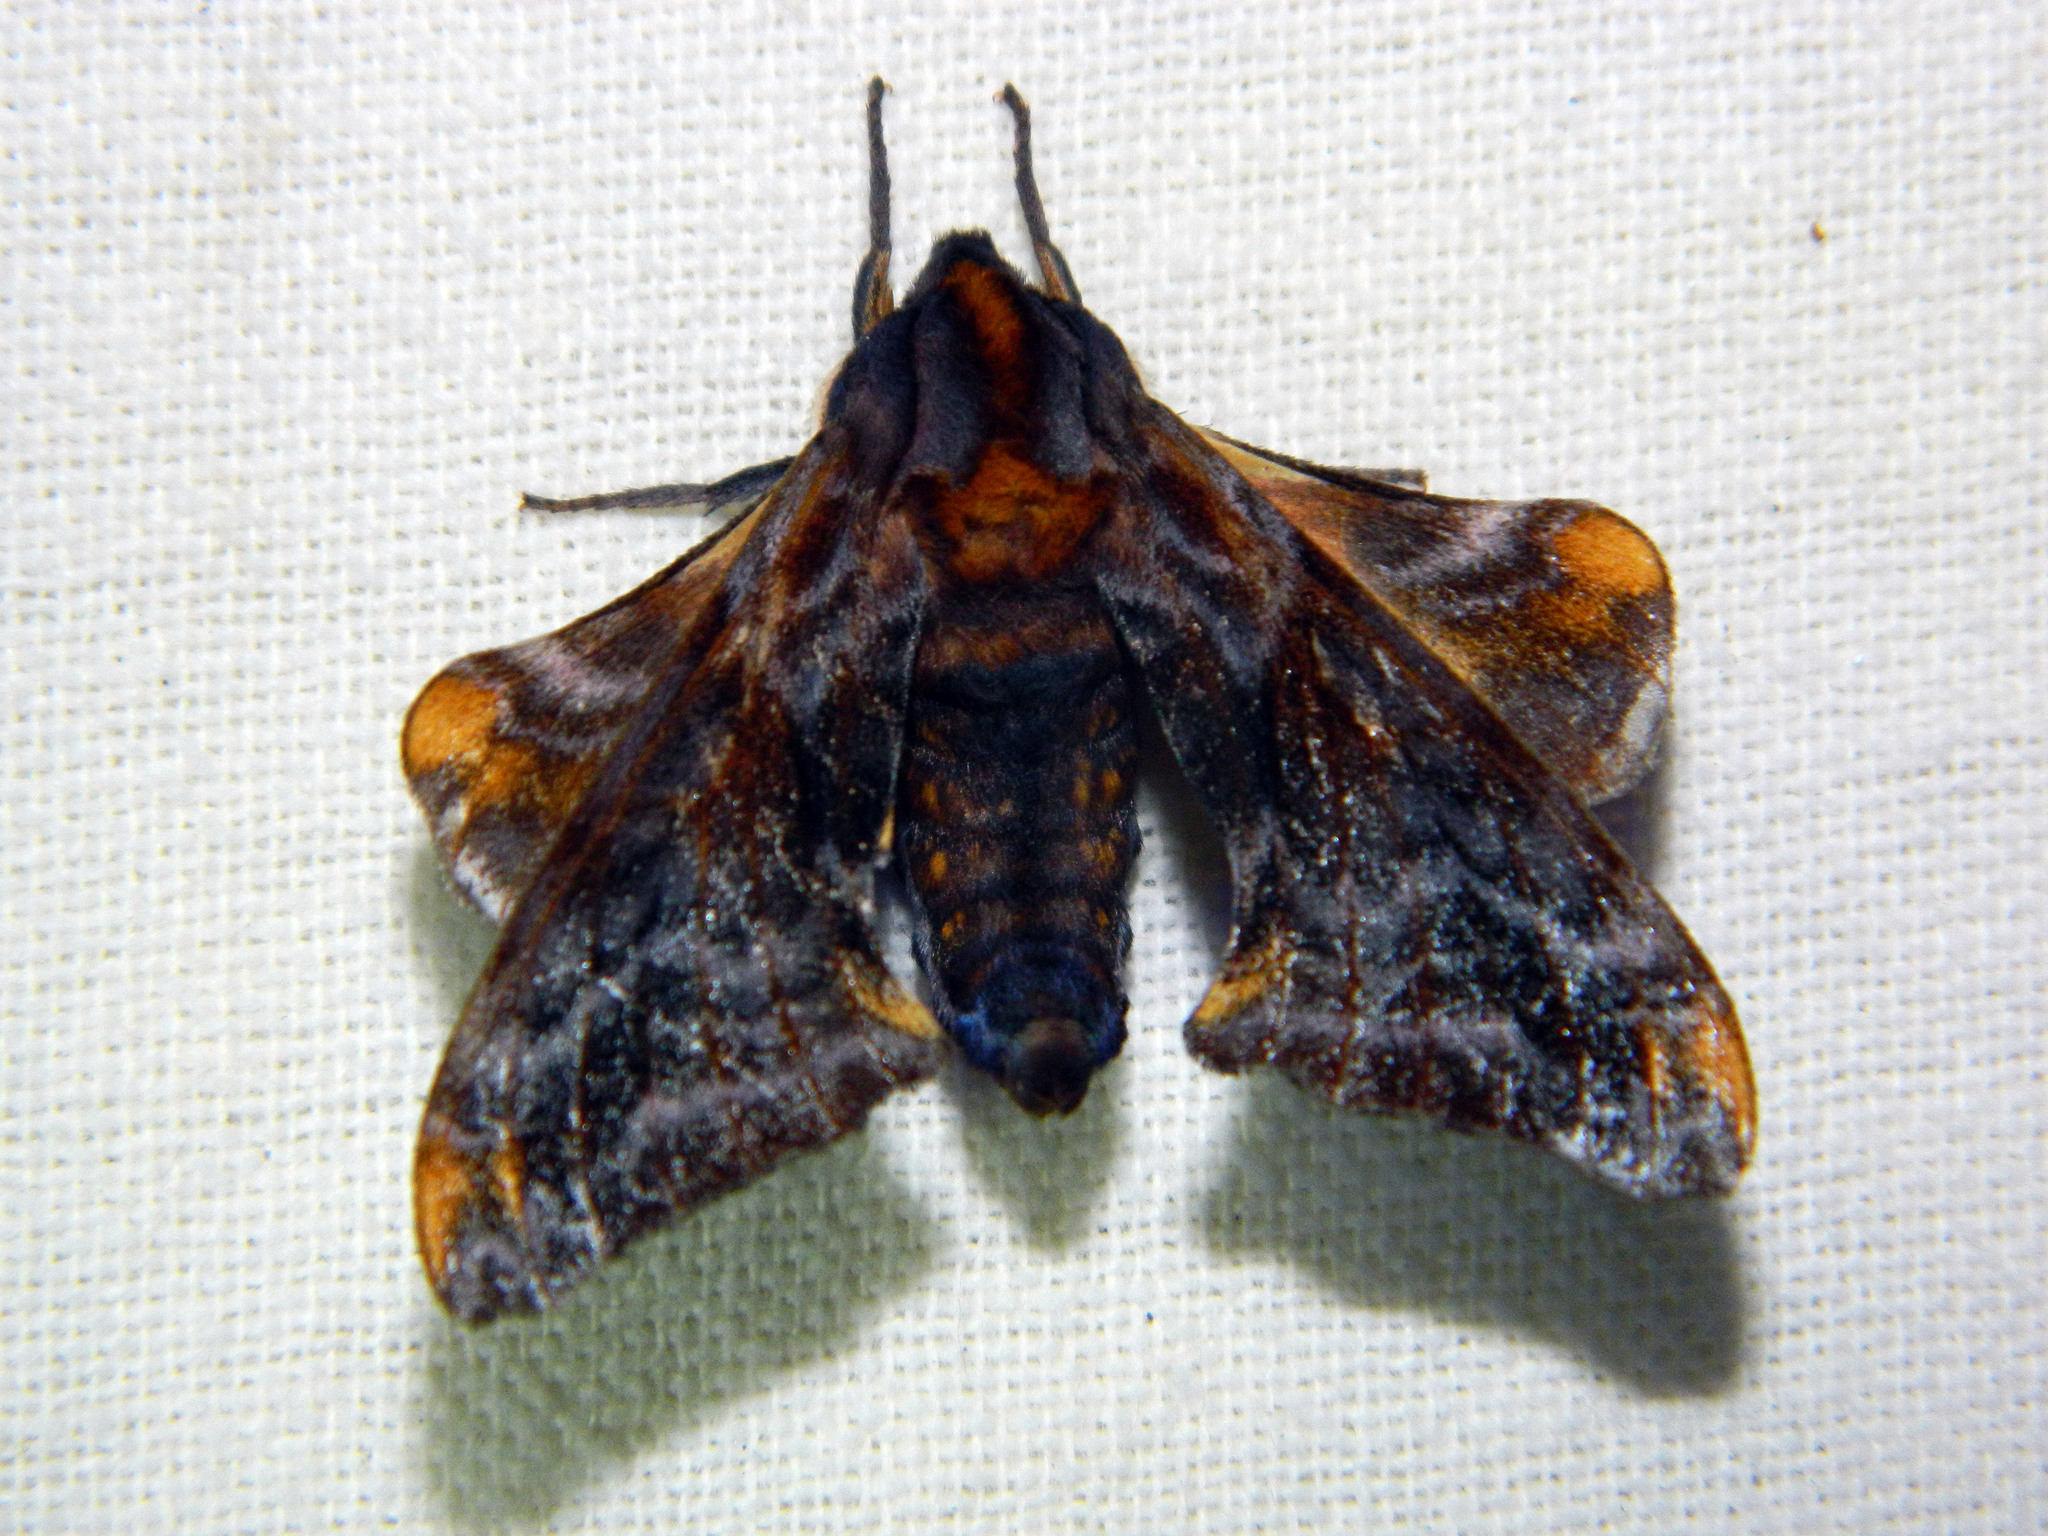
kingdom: Animalia
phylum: Arthropoda
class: Insecta
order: Lepidoptera
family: Sphingidae
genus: Paonias
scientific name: Paonias myops
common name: Small-eyed sphinx
